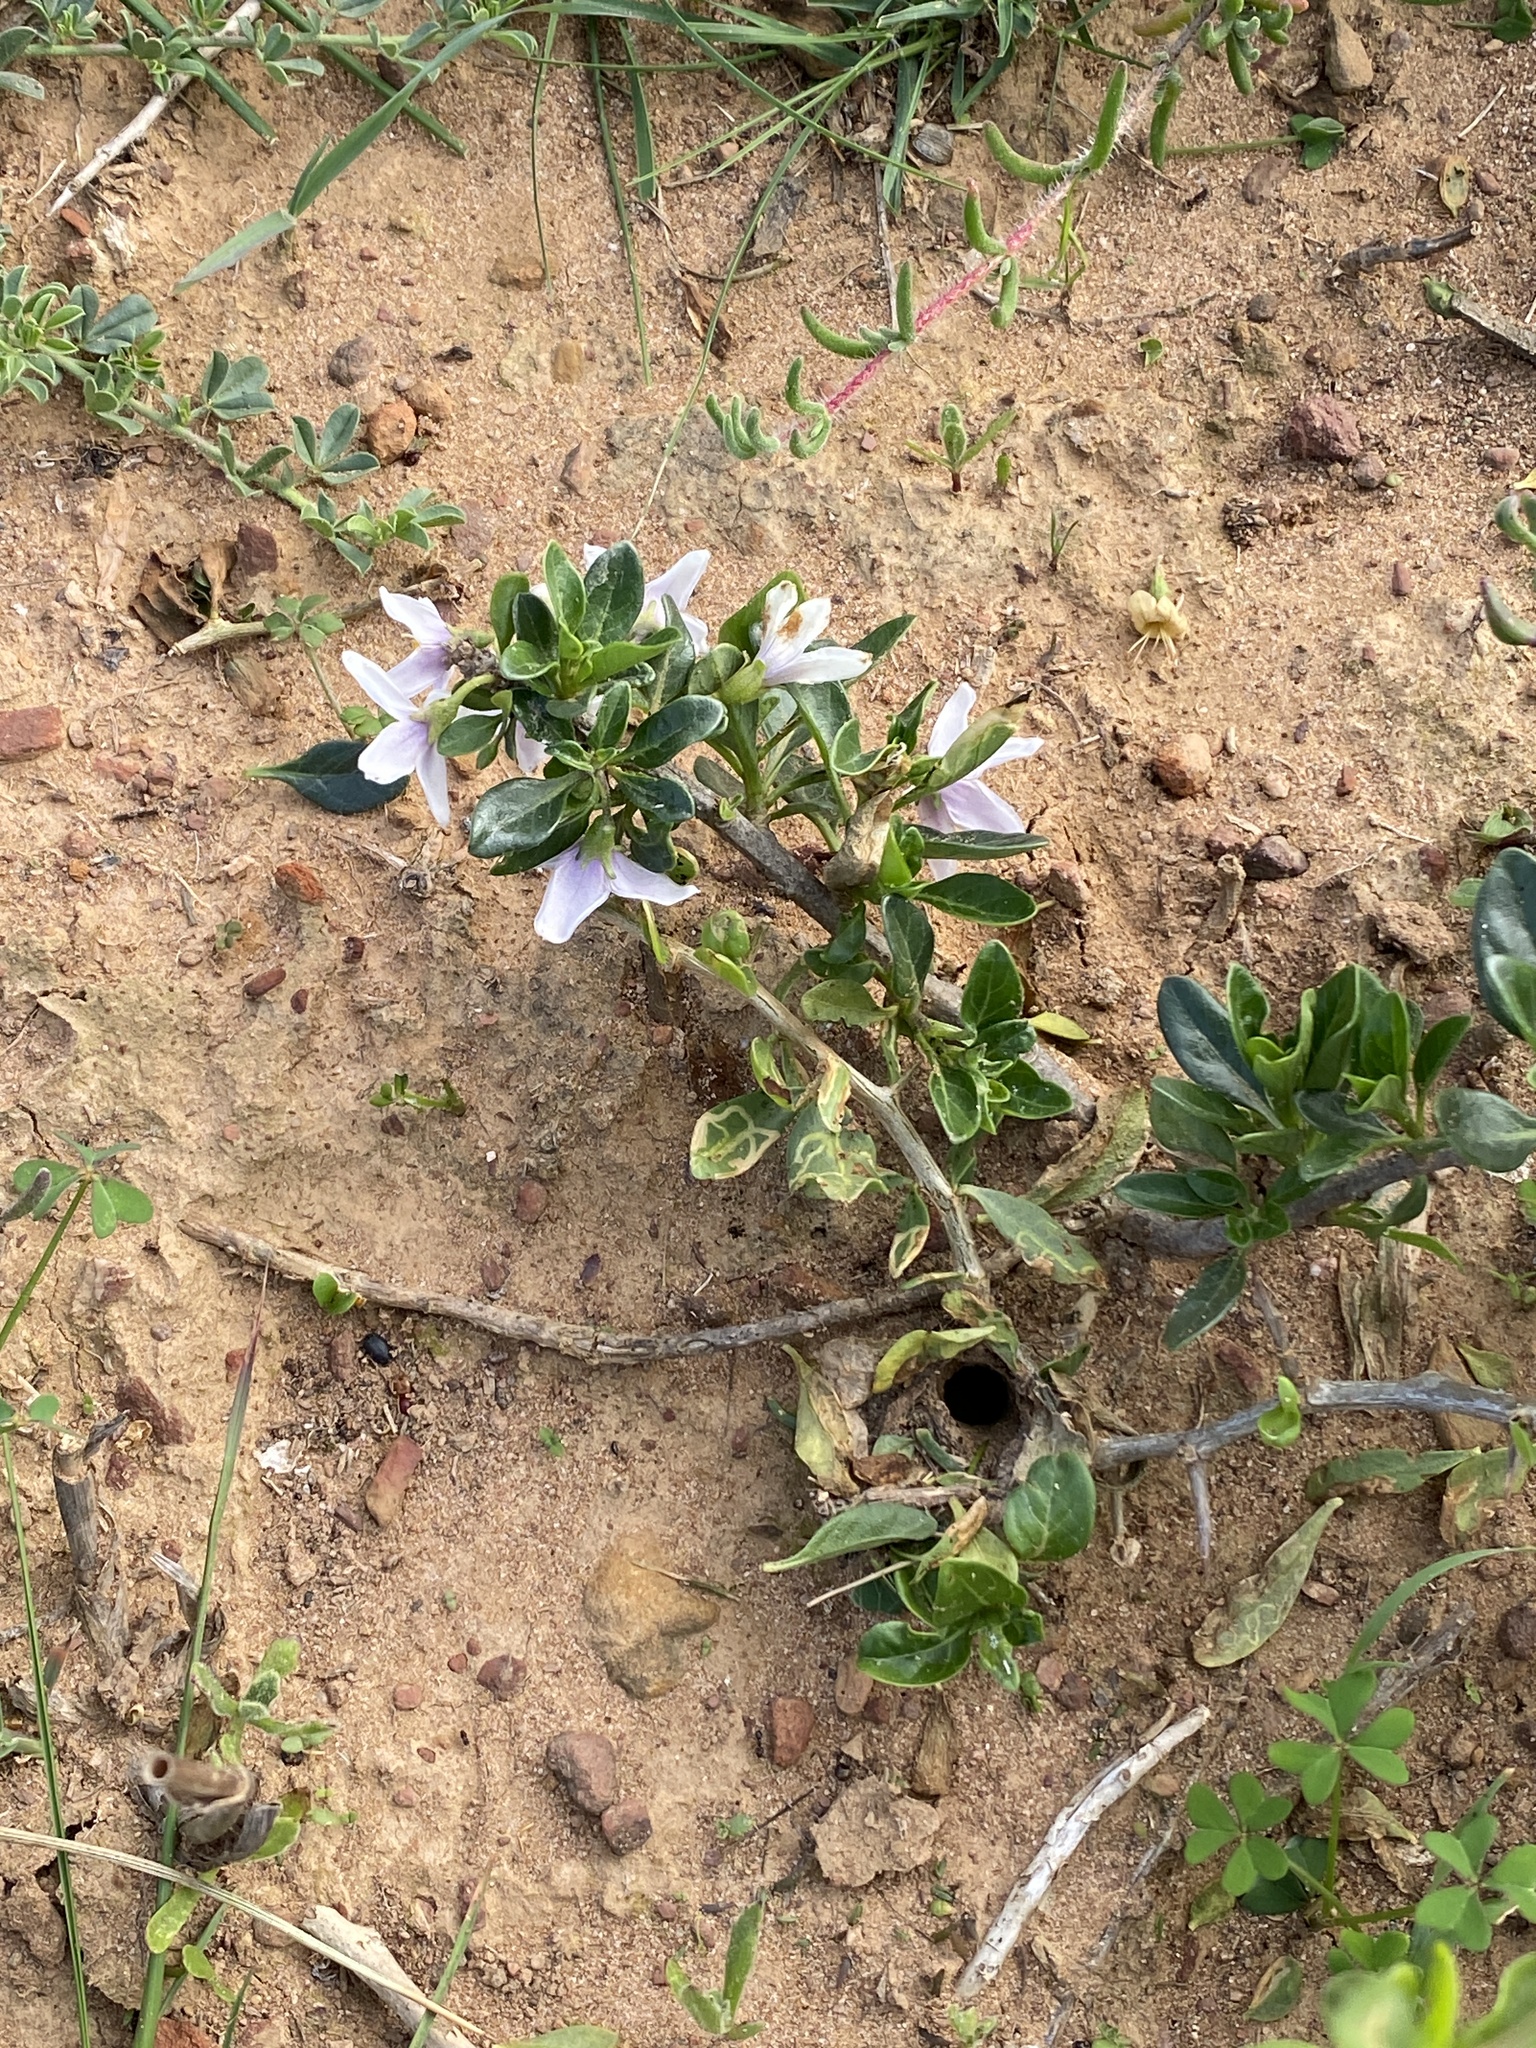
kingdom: Plantae
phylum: Tracheophyta
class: Magnoliopsida
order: Solanales
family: Solanaceae
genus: Solanum
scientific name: Solanum guineense
